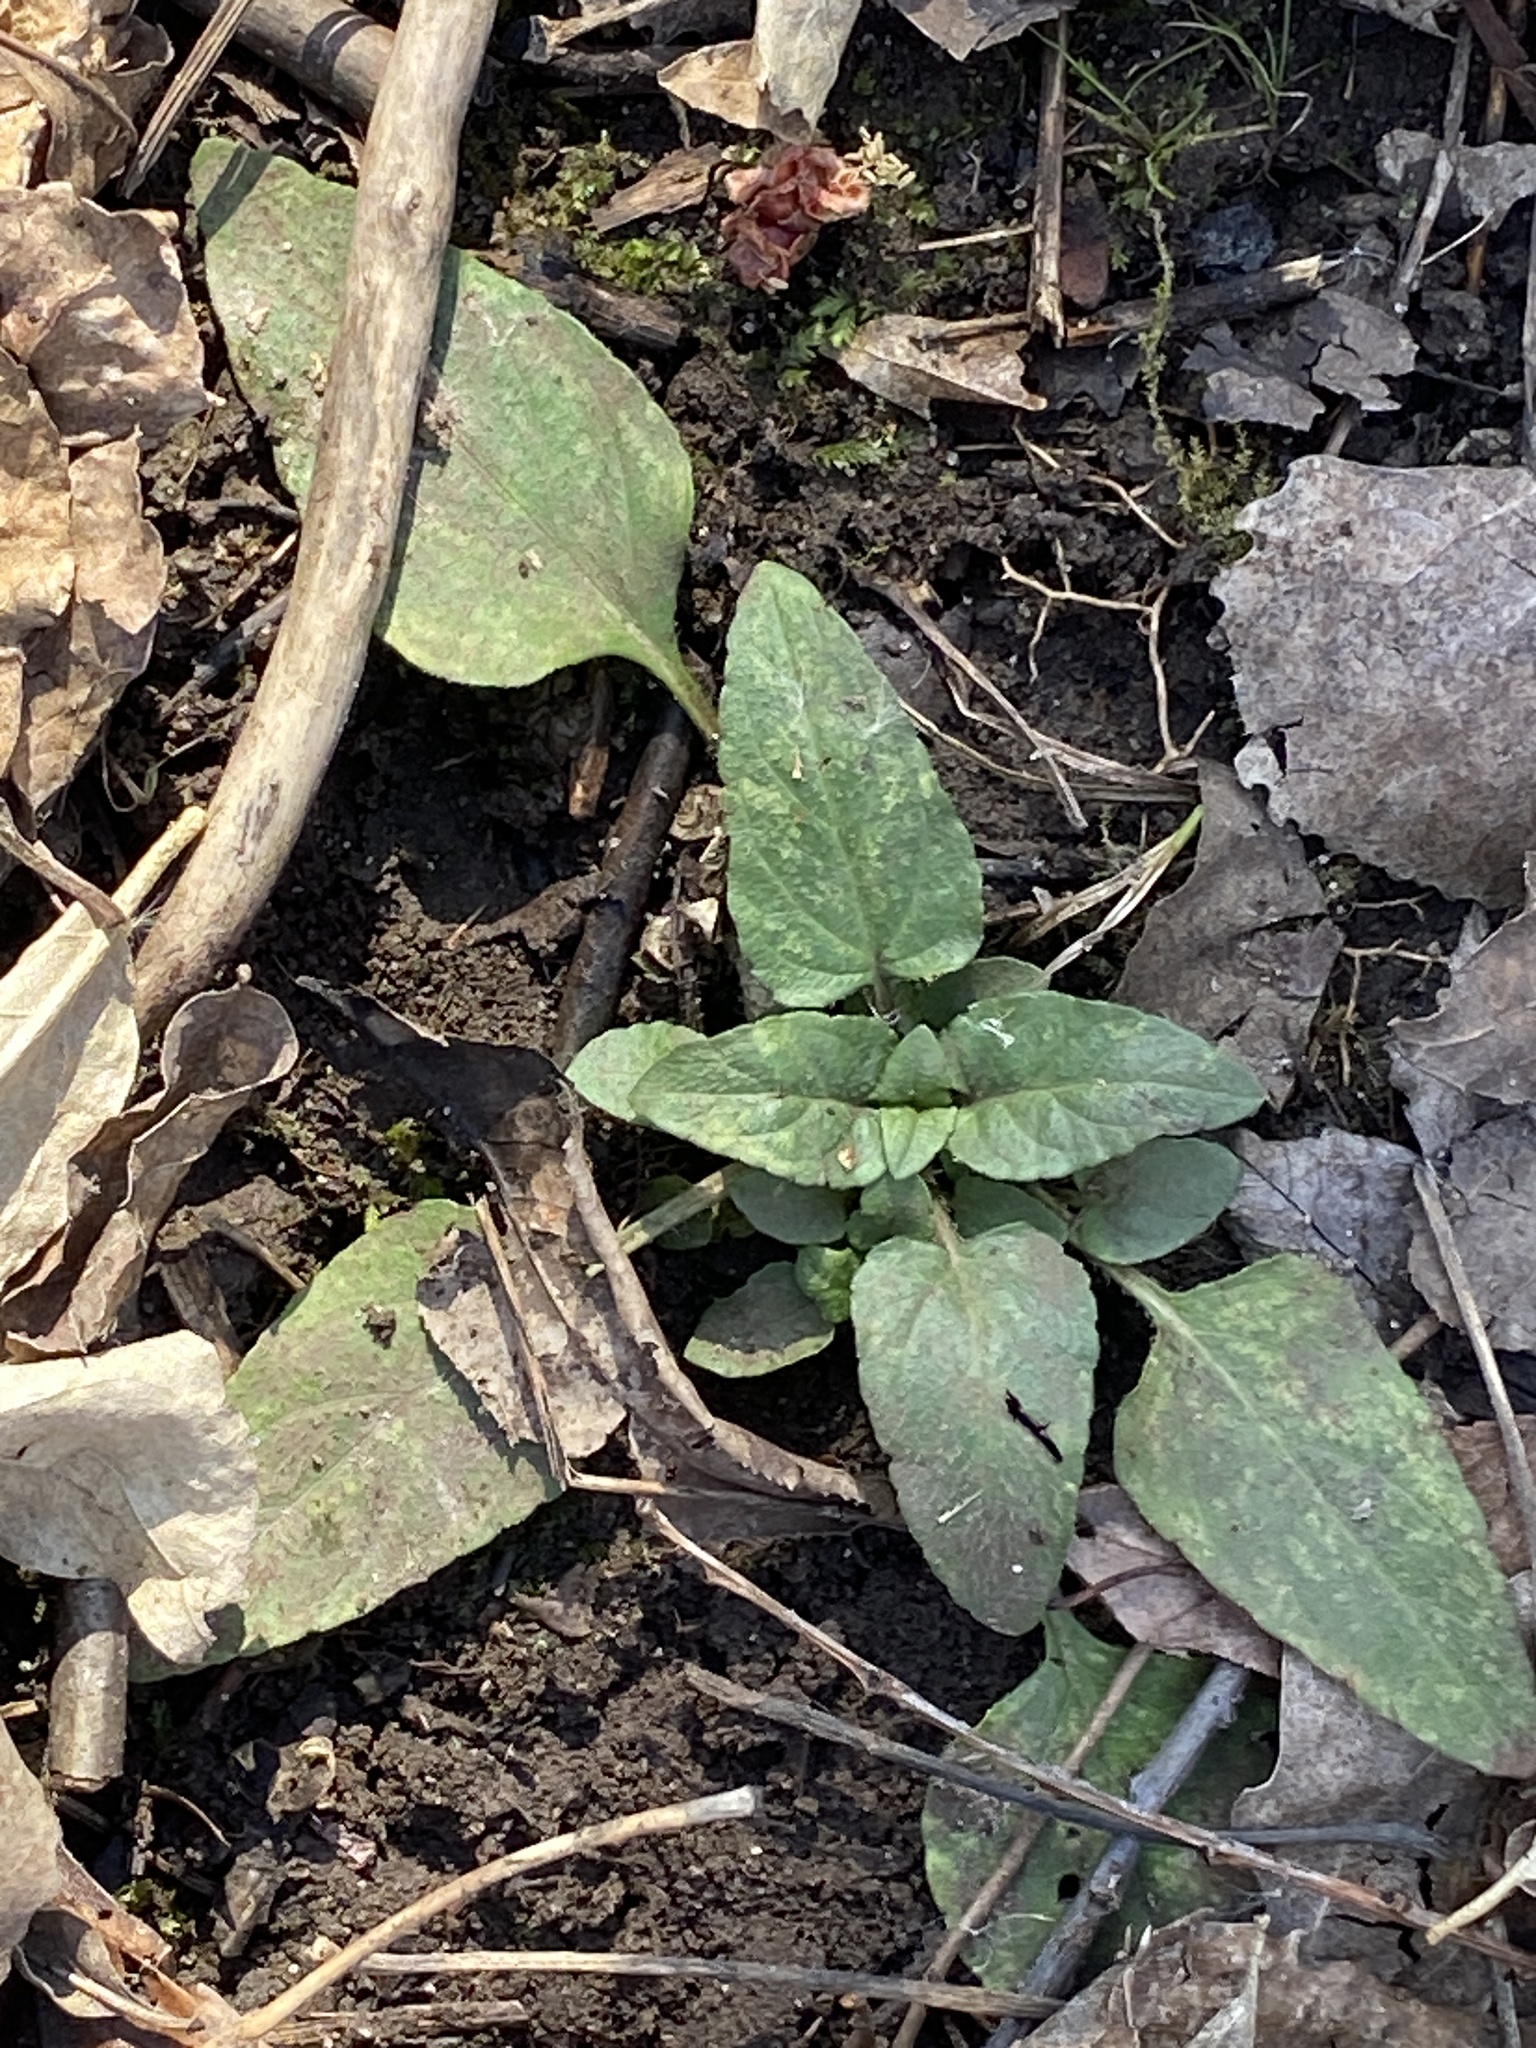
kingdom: Plantae
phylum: Tracheophyta
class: Magnoliopsida
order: Lamiales
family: Lamiaceae
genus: Prunella
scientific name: Prunella vulgaris
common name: Heal-all
